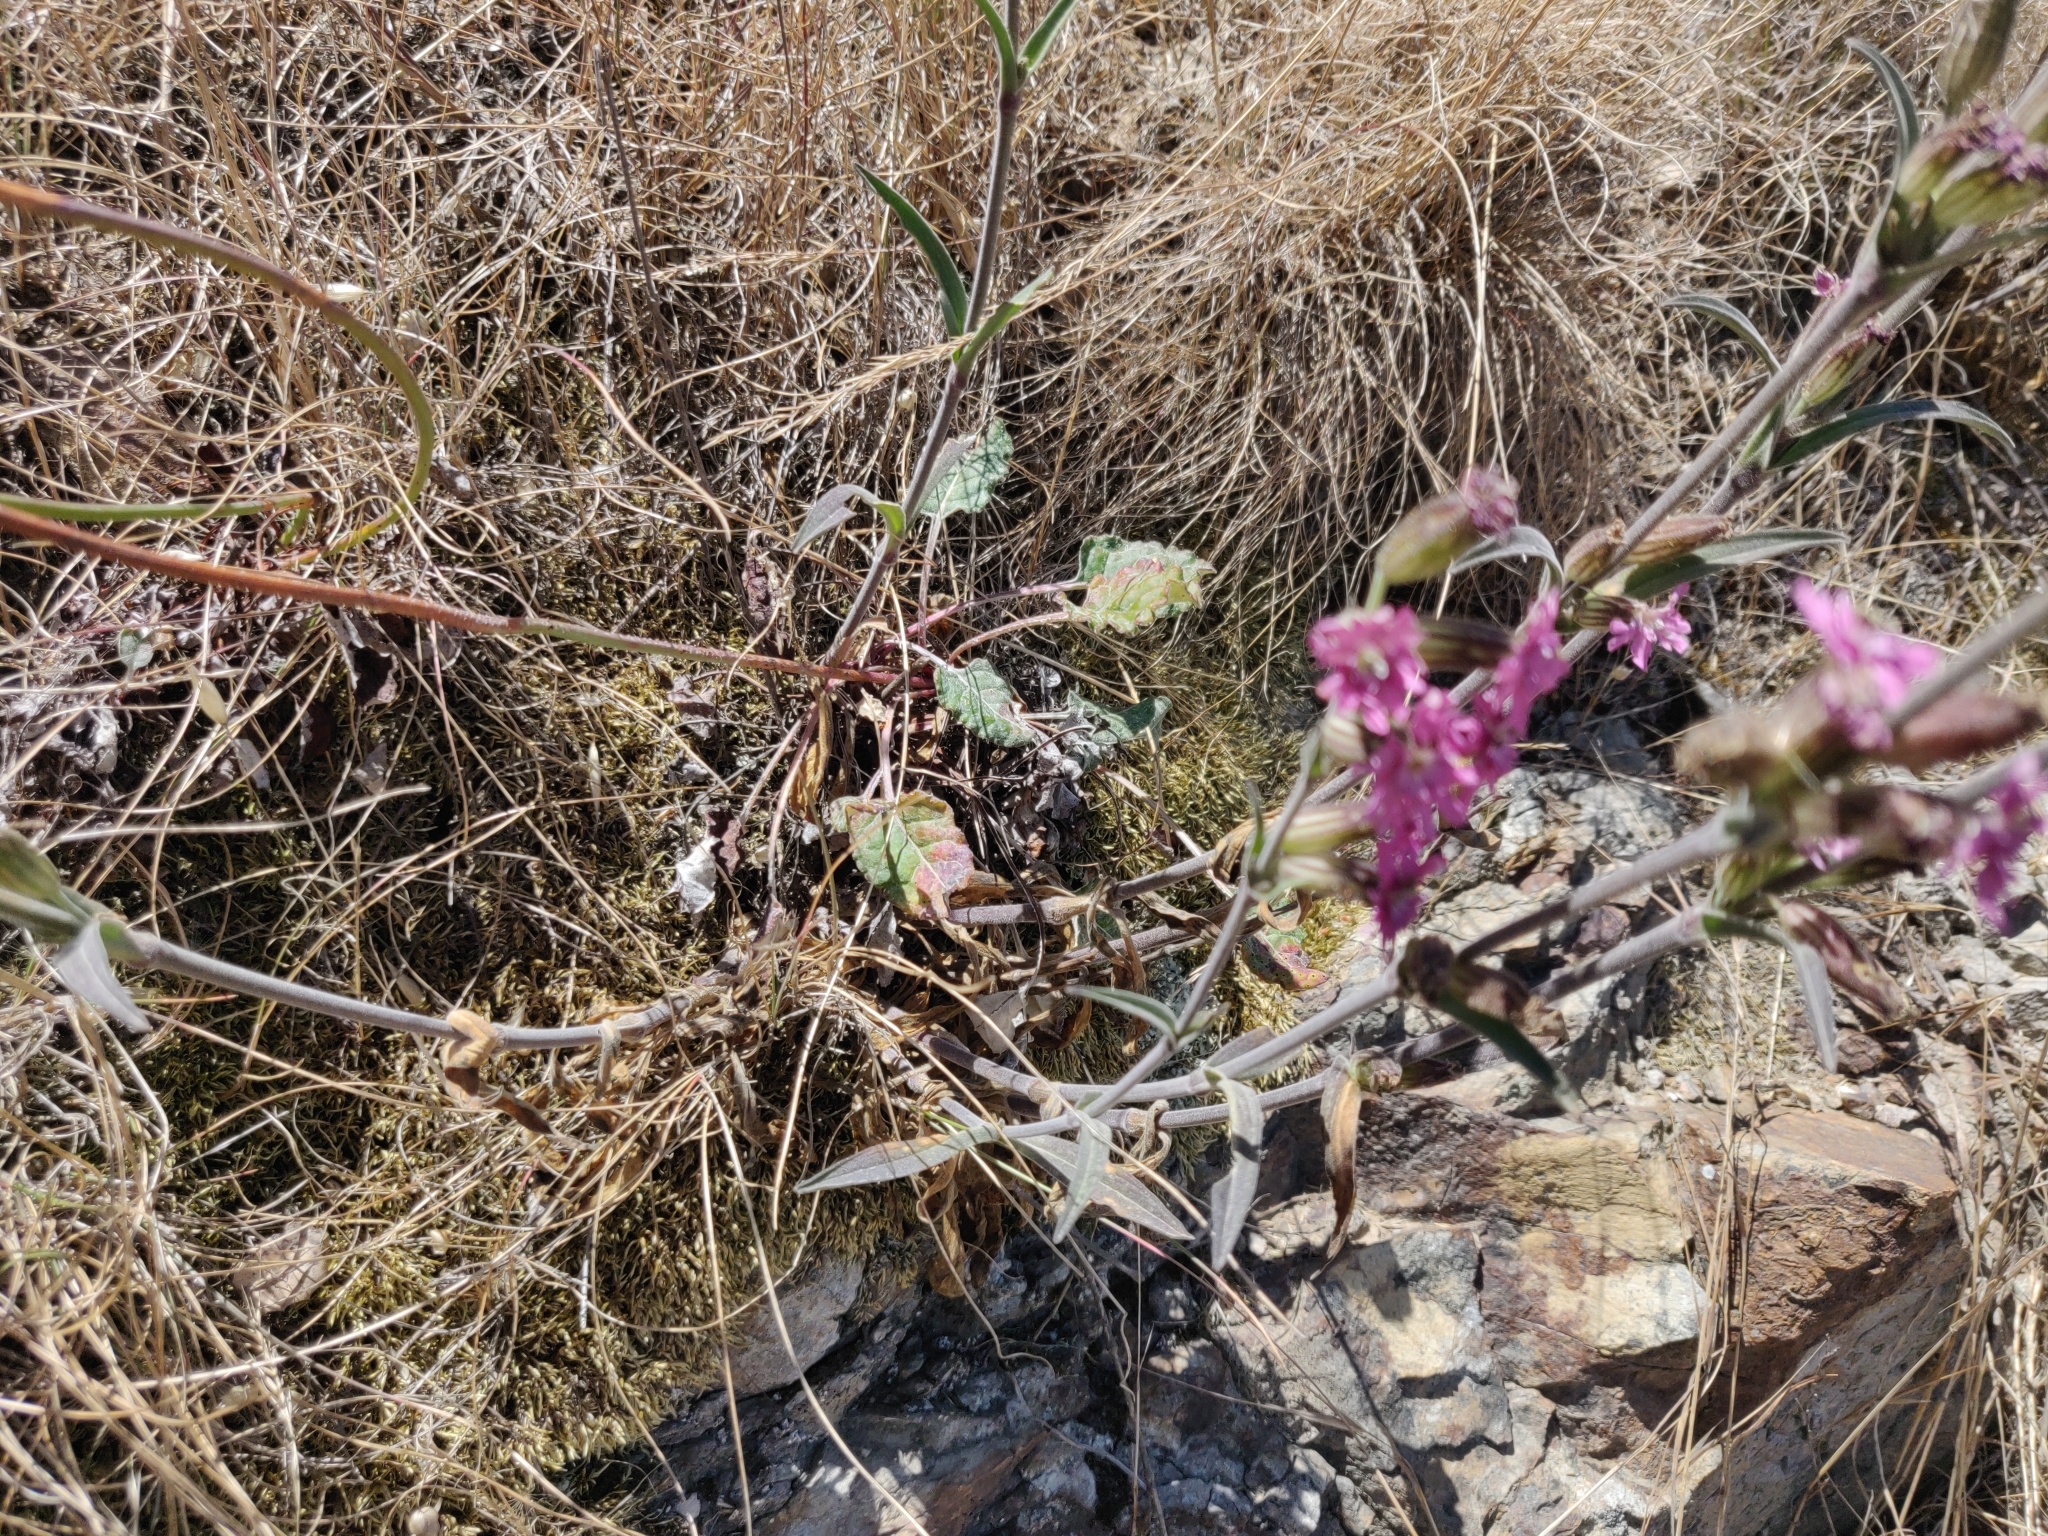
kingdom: Plantae
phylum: Tracheophyta
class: Magnoliopsida
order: Caryophyllales
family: Caryophyllaceae
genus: Silene
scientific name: Silene scouleri
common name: Scouler's campion
